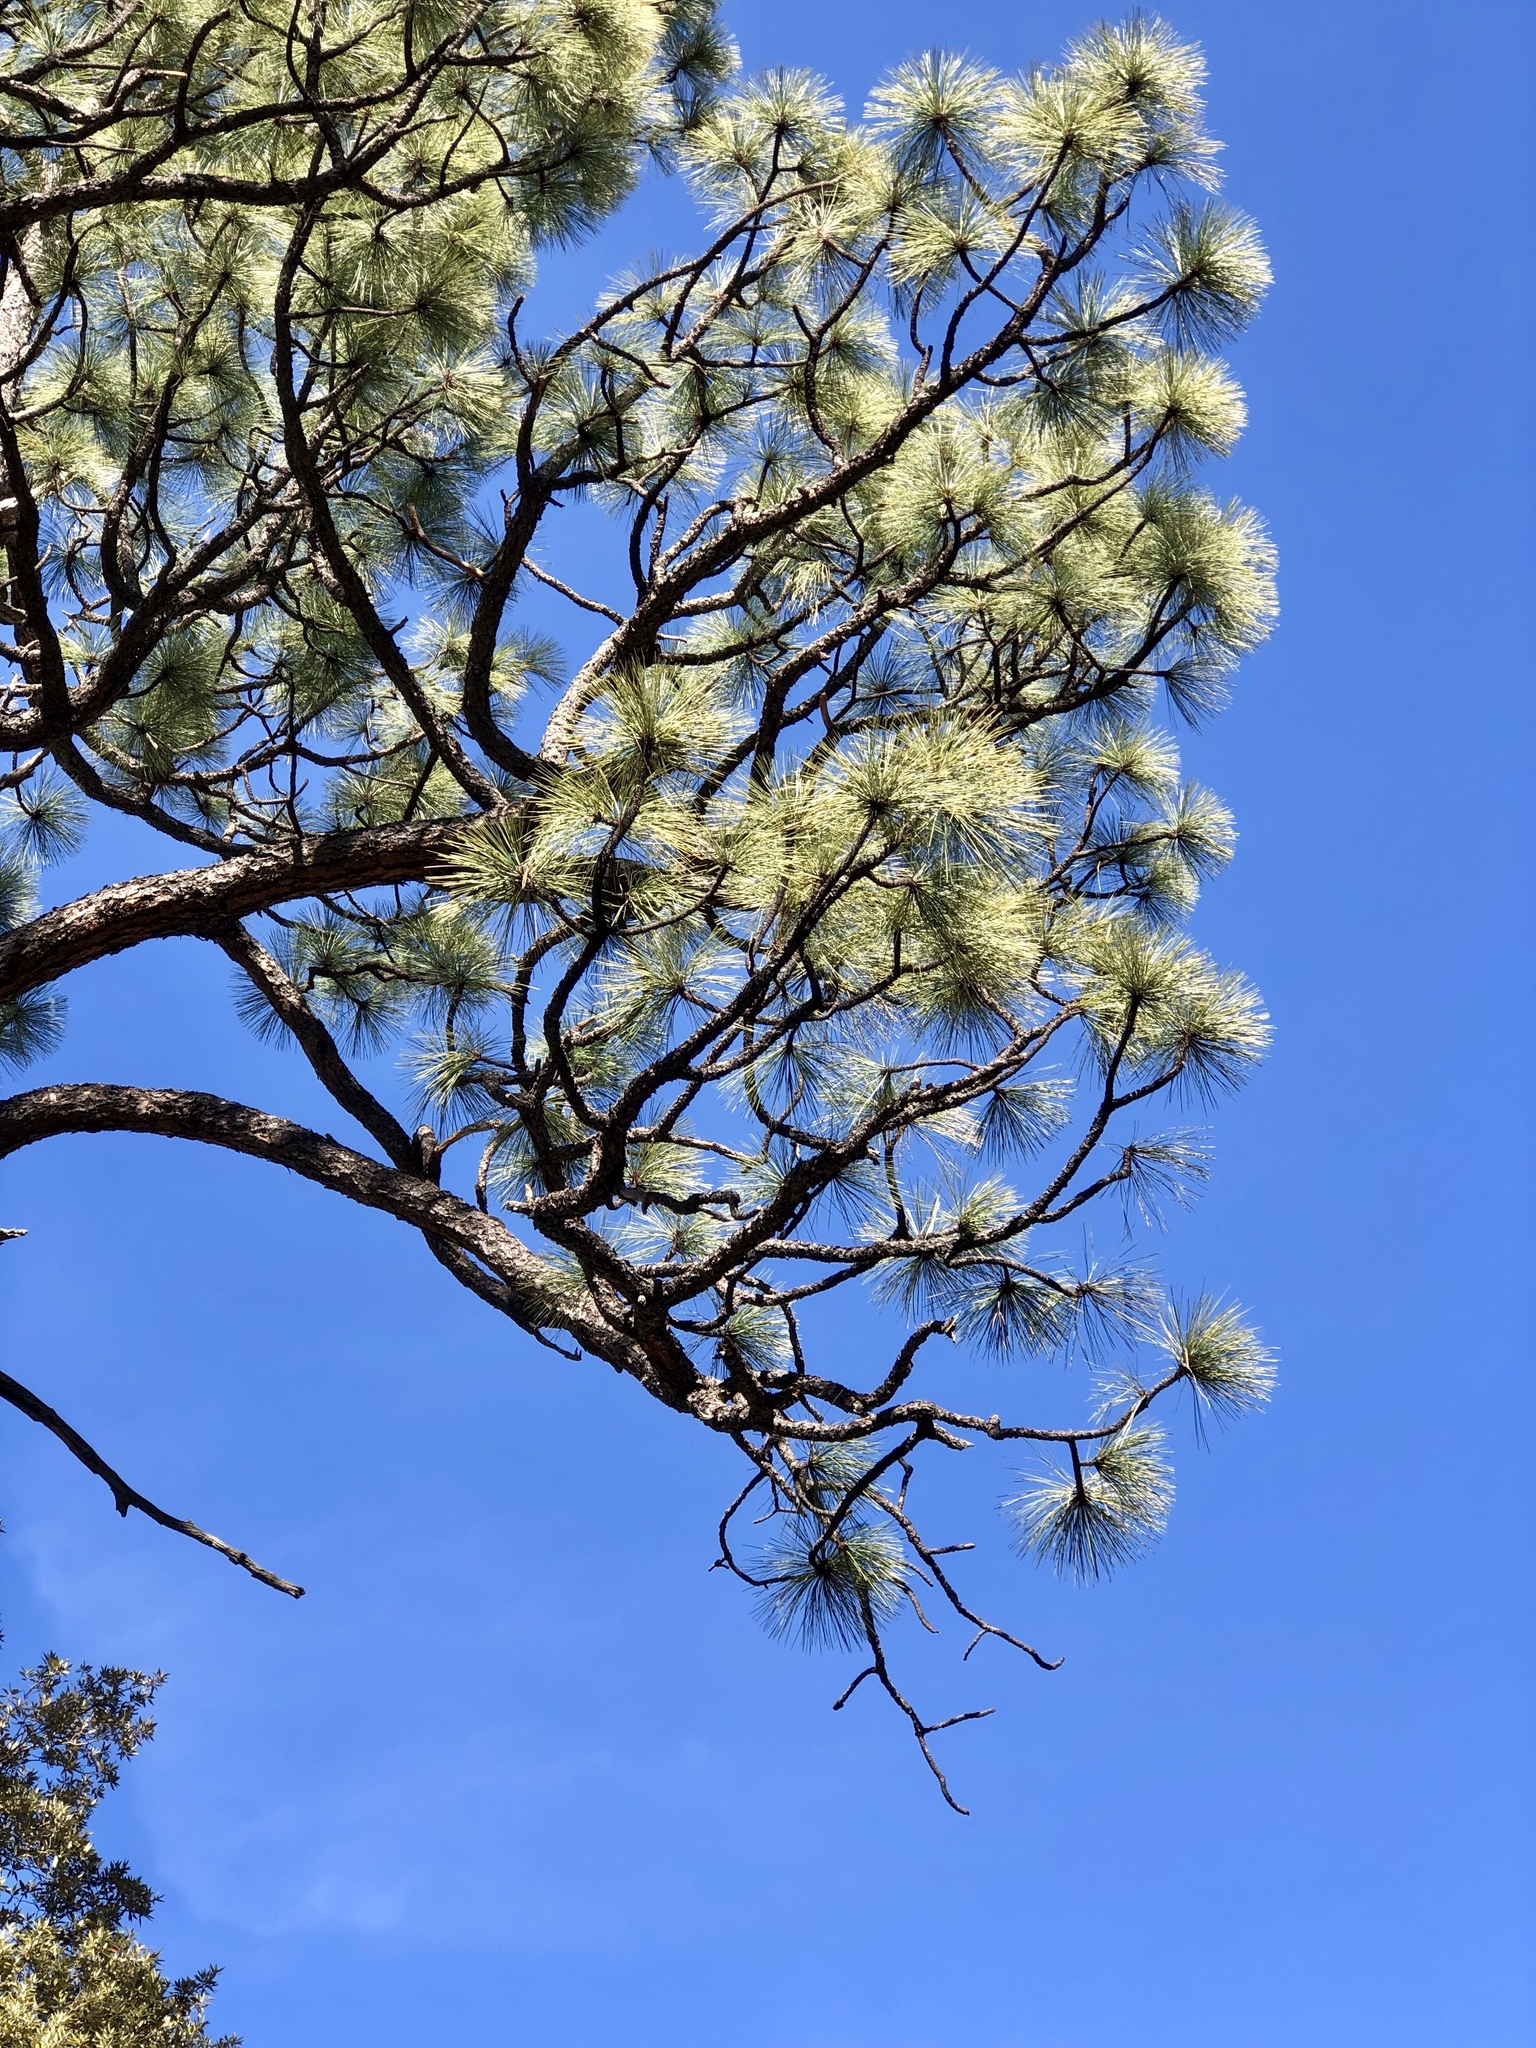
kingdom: Plantae
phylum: Tracheophyta
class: Pinopsida
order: Pinales
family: Pinaceae
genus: Pinus
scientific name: Pinus engelmannii
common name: Apache pine
